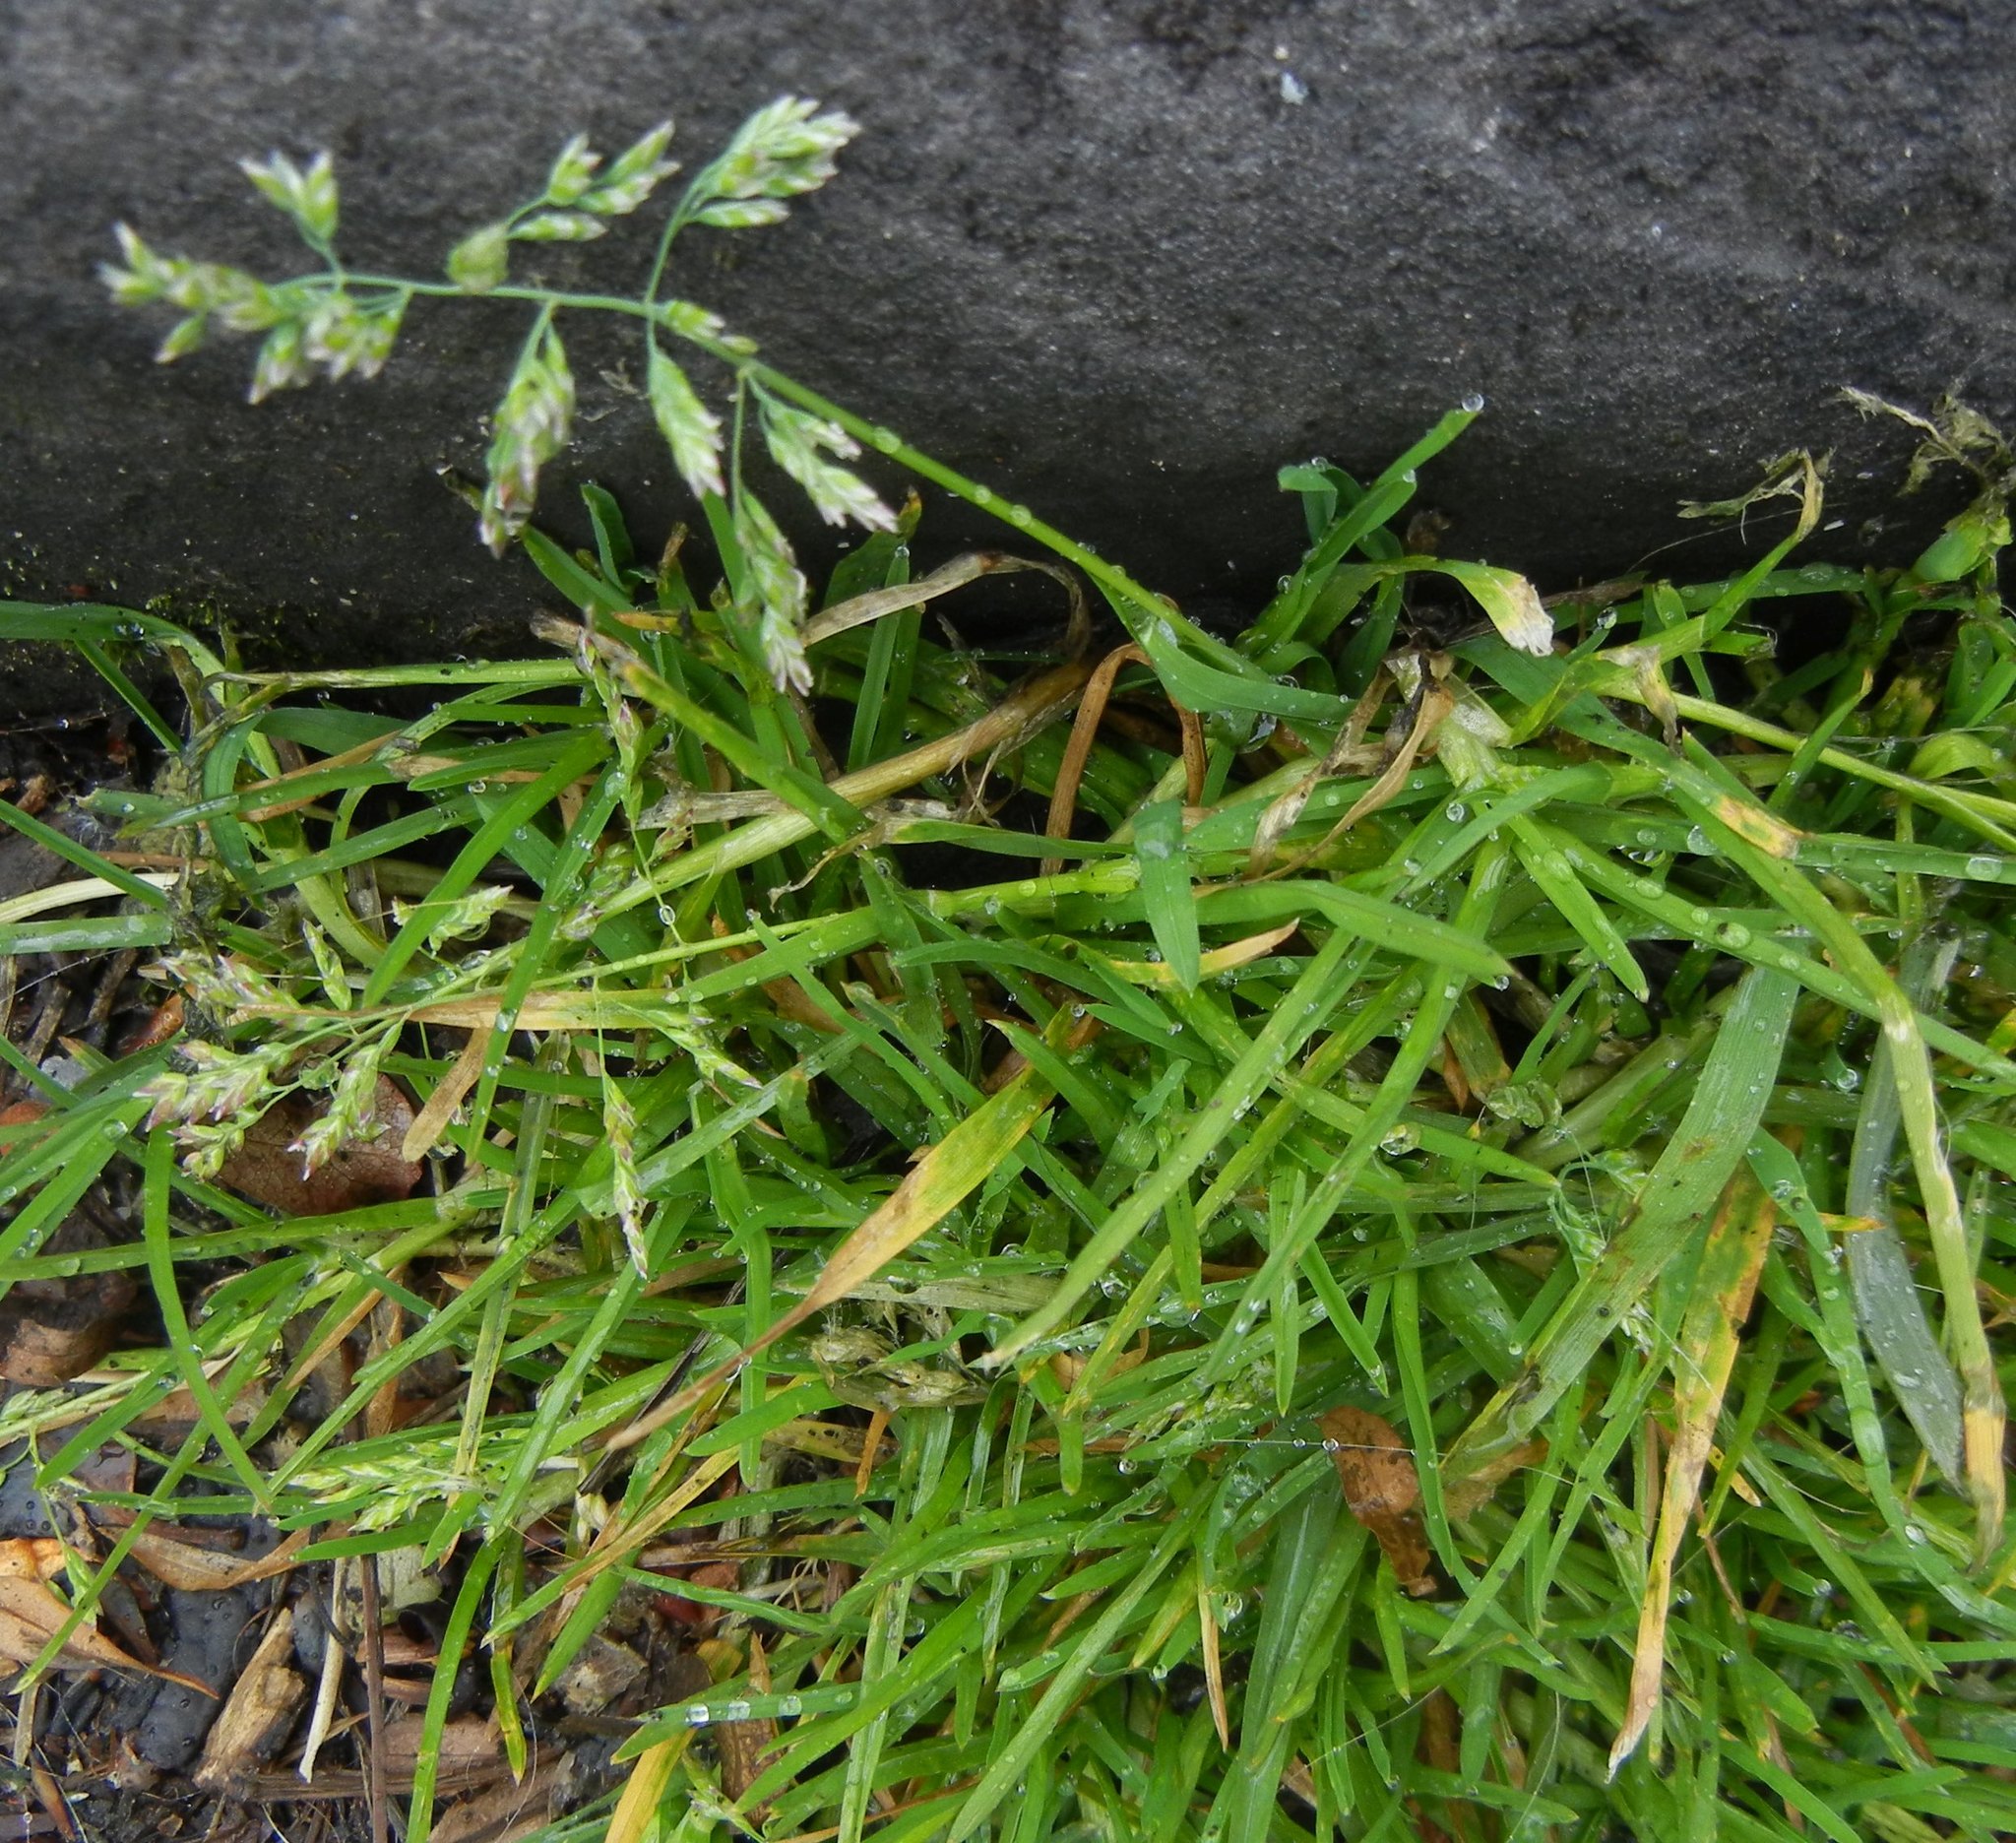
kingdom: Plantae
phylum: Tracheophyta
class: Liliopsida
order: Poales
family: Poaceae
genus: Poa
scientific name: Poa annua
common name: Annual bluegrass
